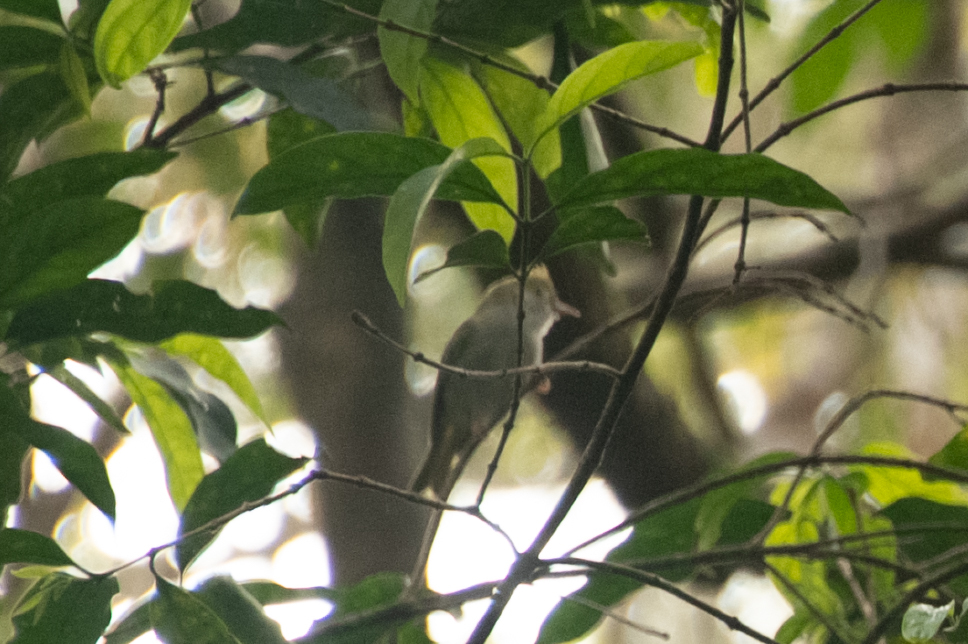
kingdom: Animalia
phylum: Chordata
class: Aves
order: Passeriformes
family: Stenostiridae
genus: Culicicapa
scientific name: Culicicapa ceylonensis
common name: Grey-headed canary-flycatcher
